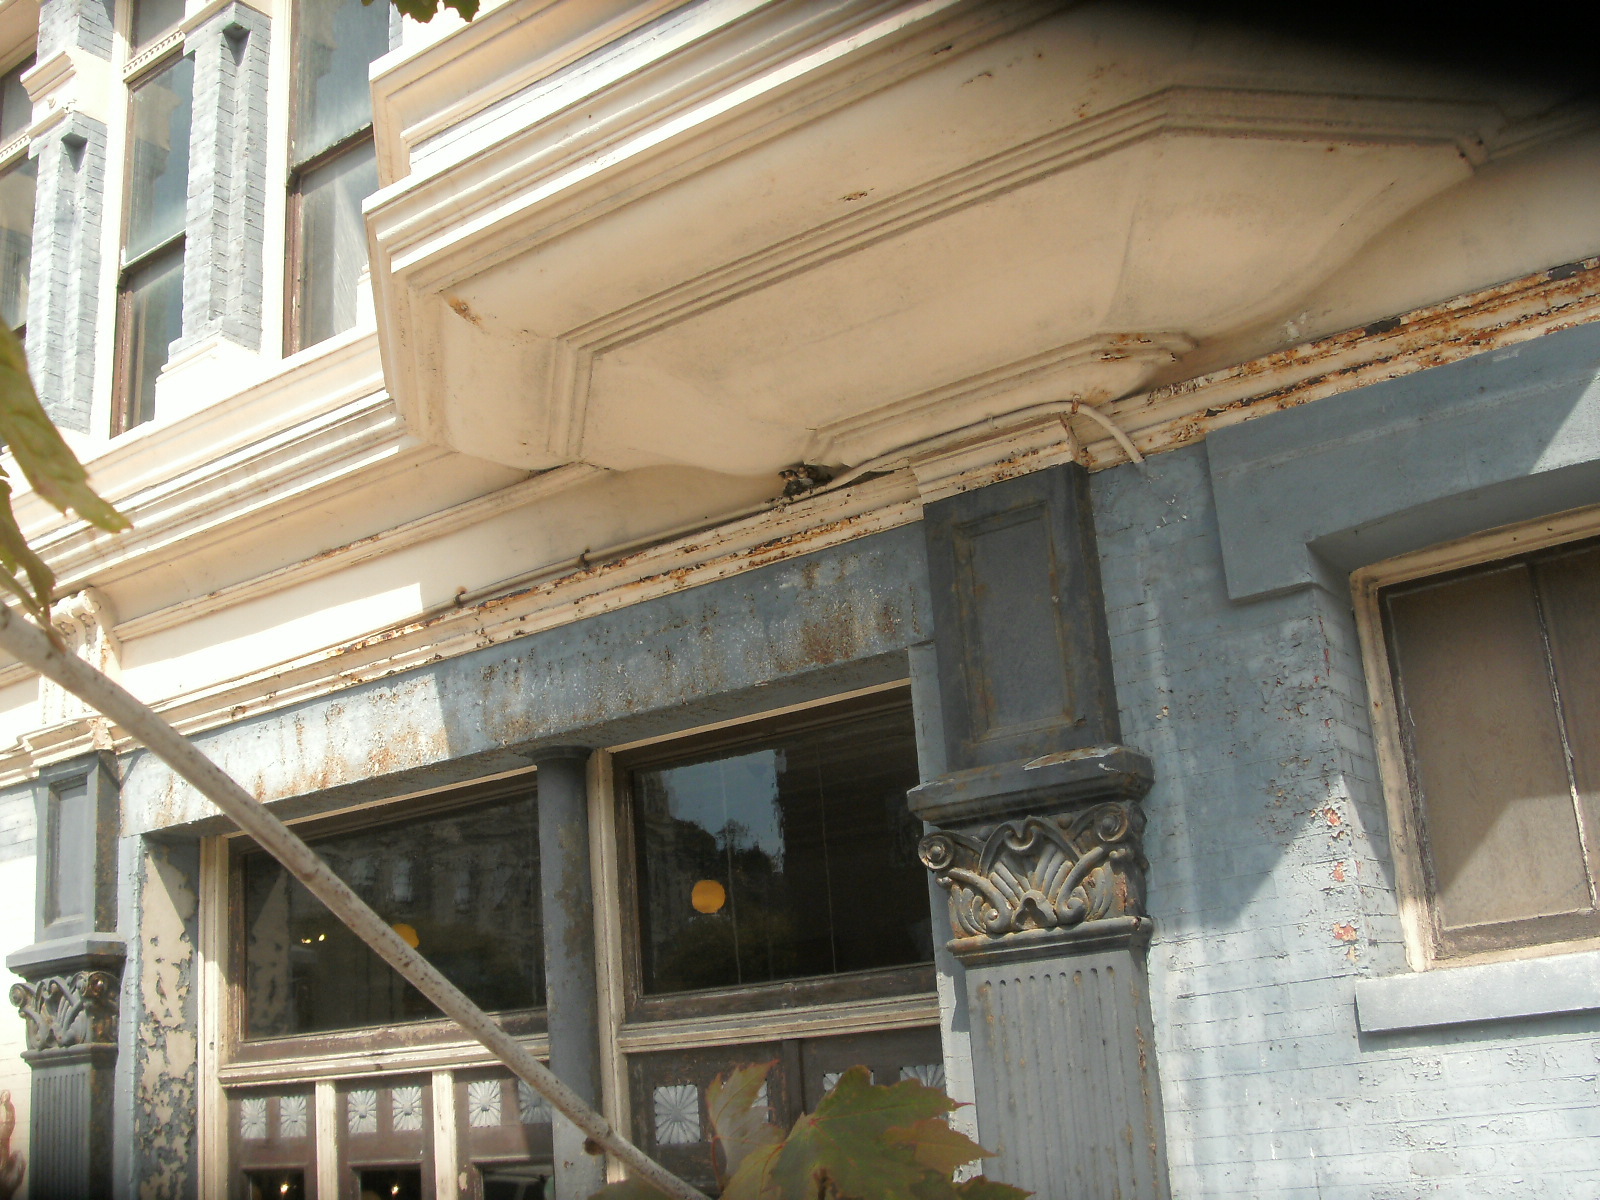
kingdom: Animalia
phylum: Chordata
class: Aves
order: Passeriformes
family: Hirundinidae
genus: Hirundo
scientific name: Hirundo rustica
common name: Barn swallow
